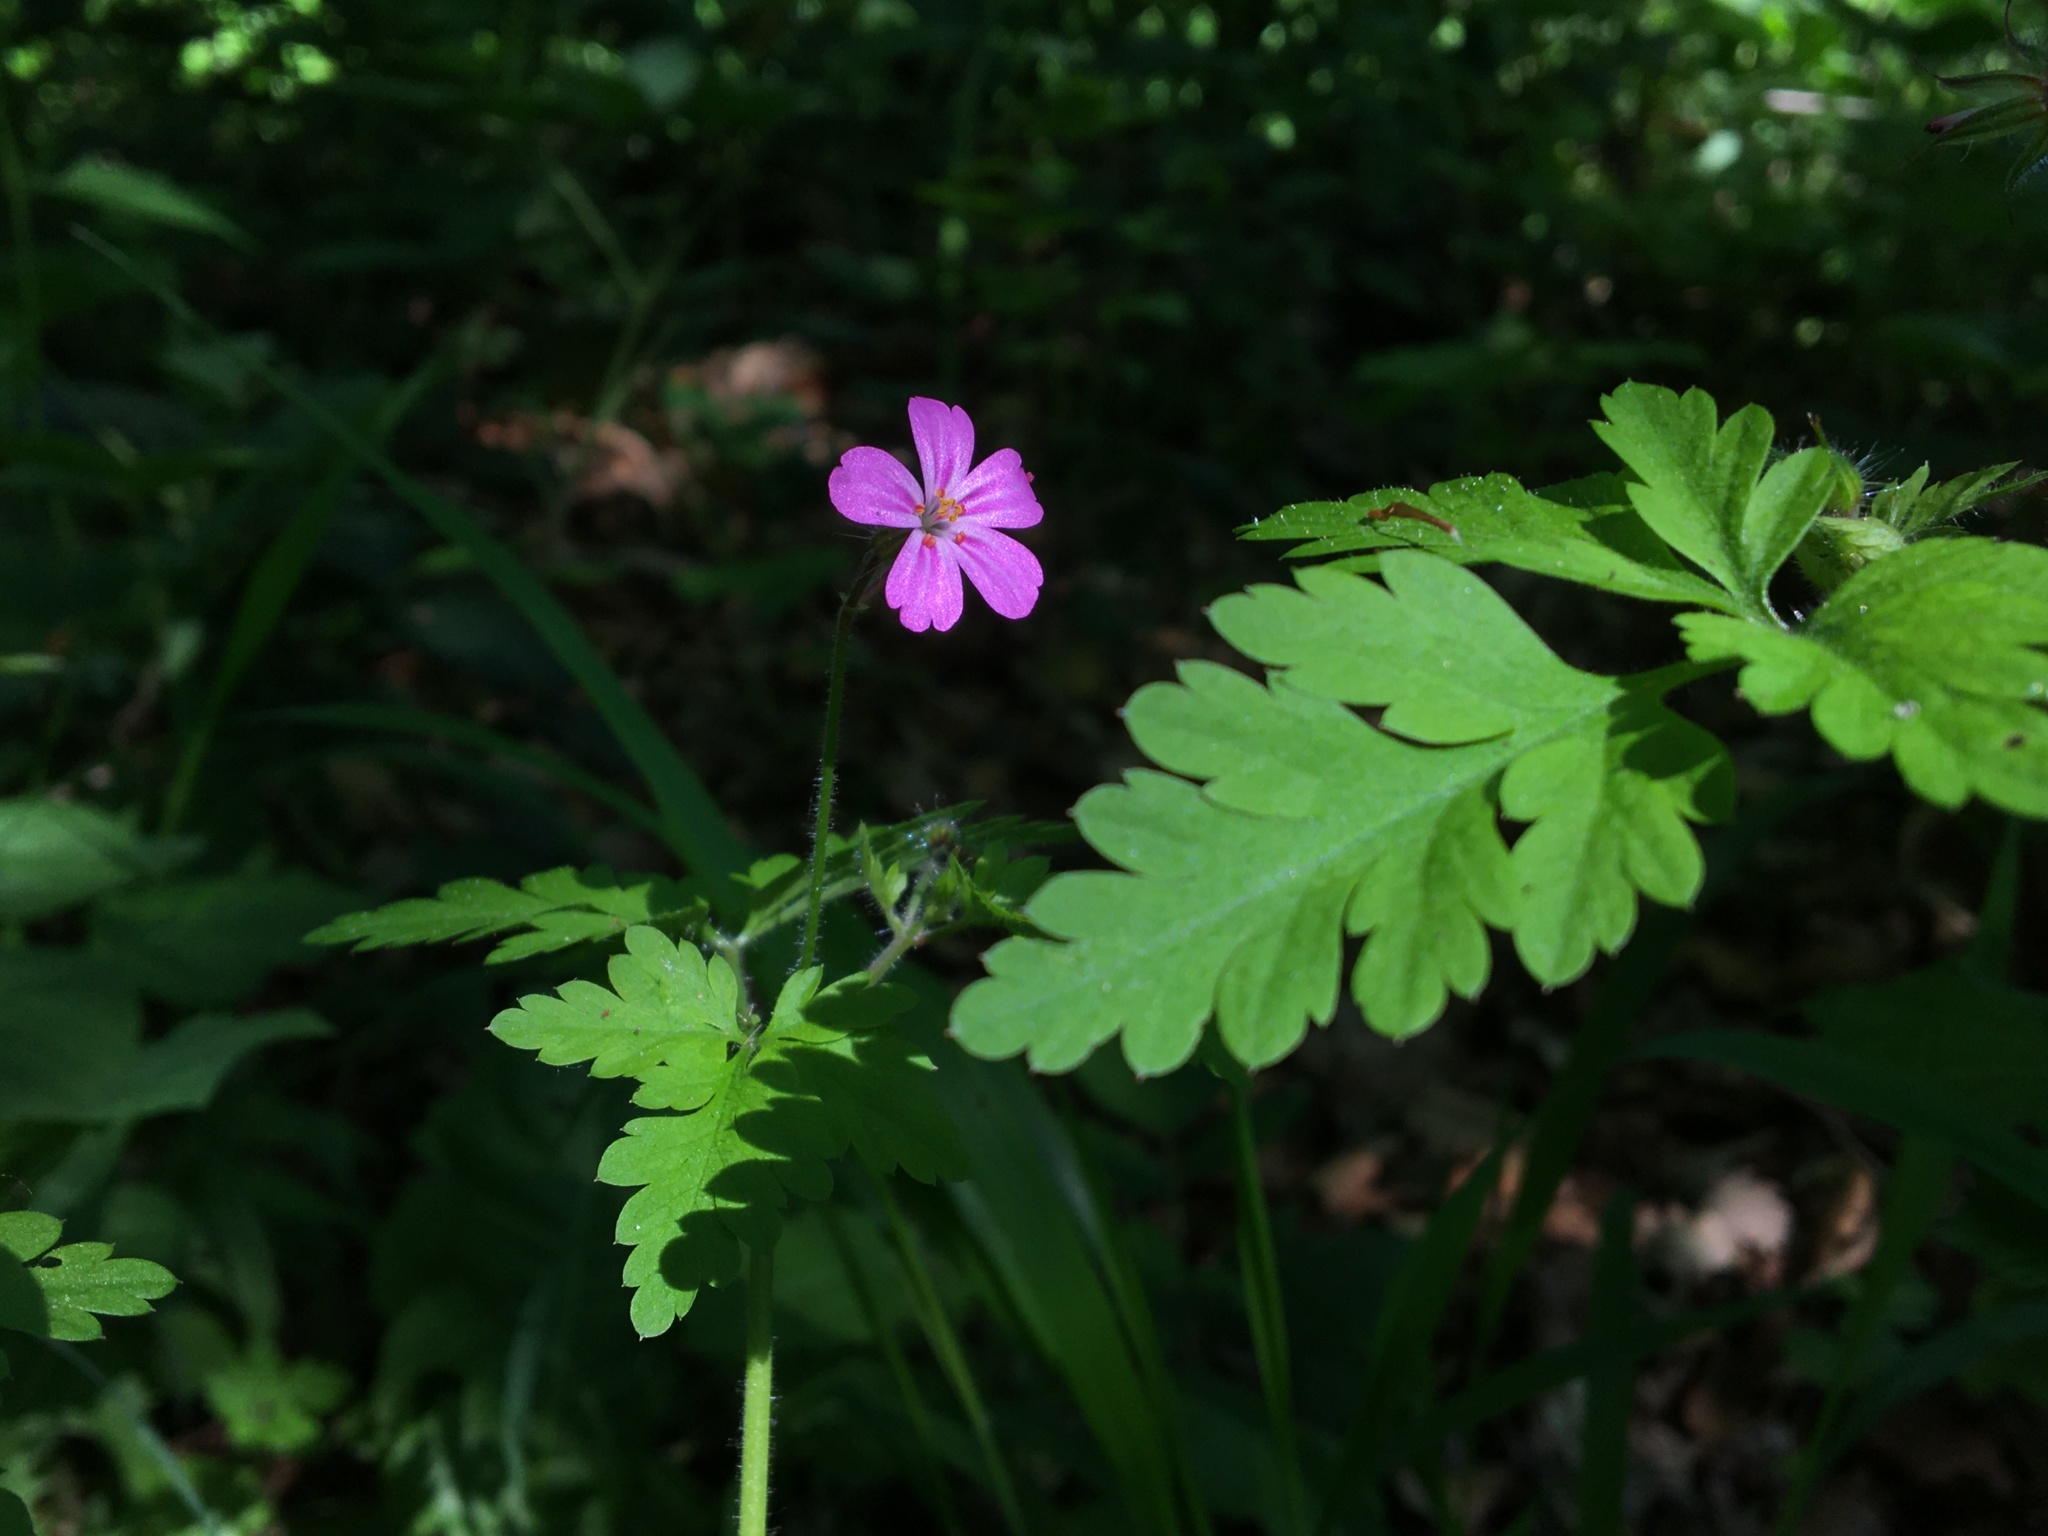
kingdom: Plantae
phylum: Tracheophyta
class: Magnoliopsida
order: Geraniales
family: Geraniaceae
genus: Geranium
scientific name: Geranium robertianum
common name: Herb-robert
